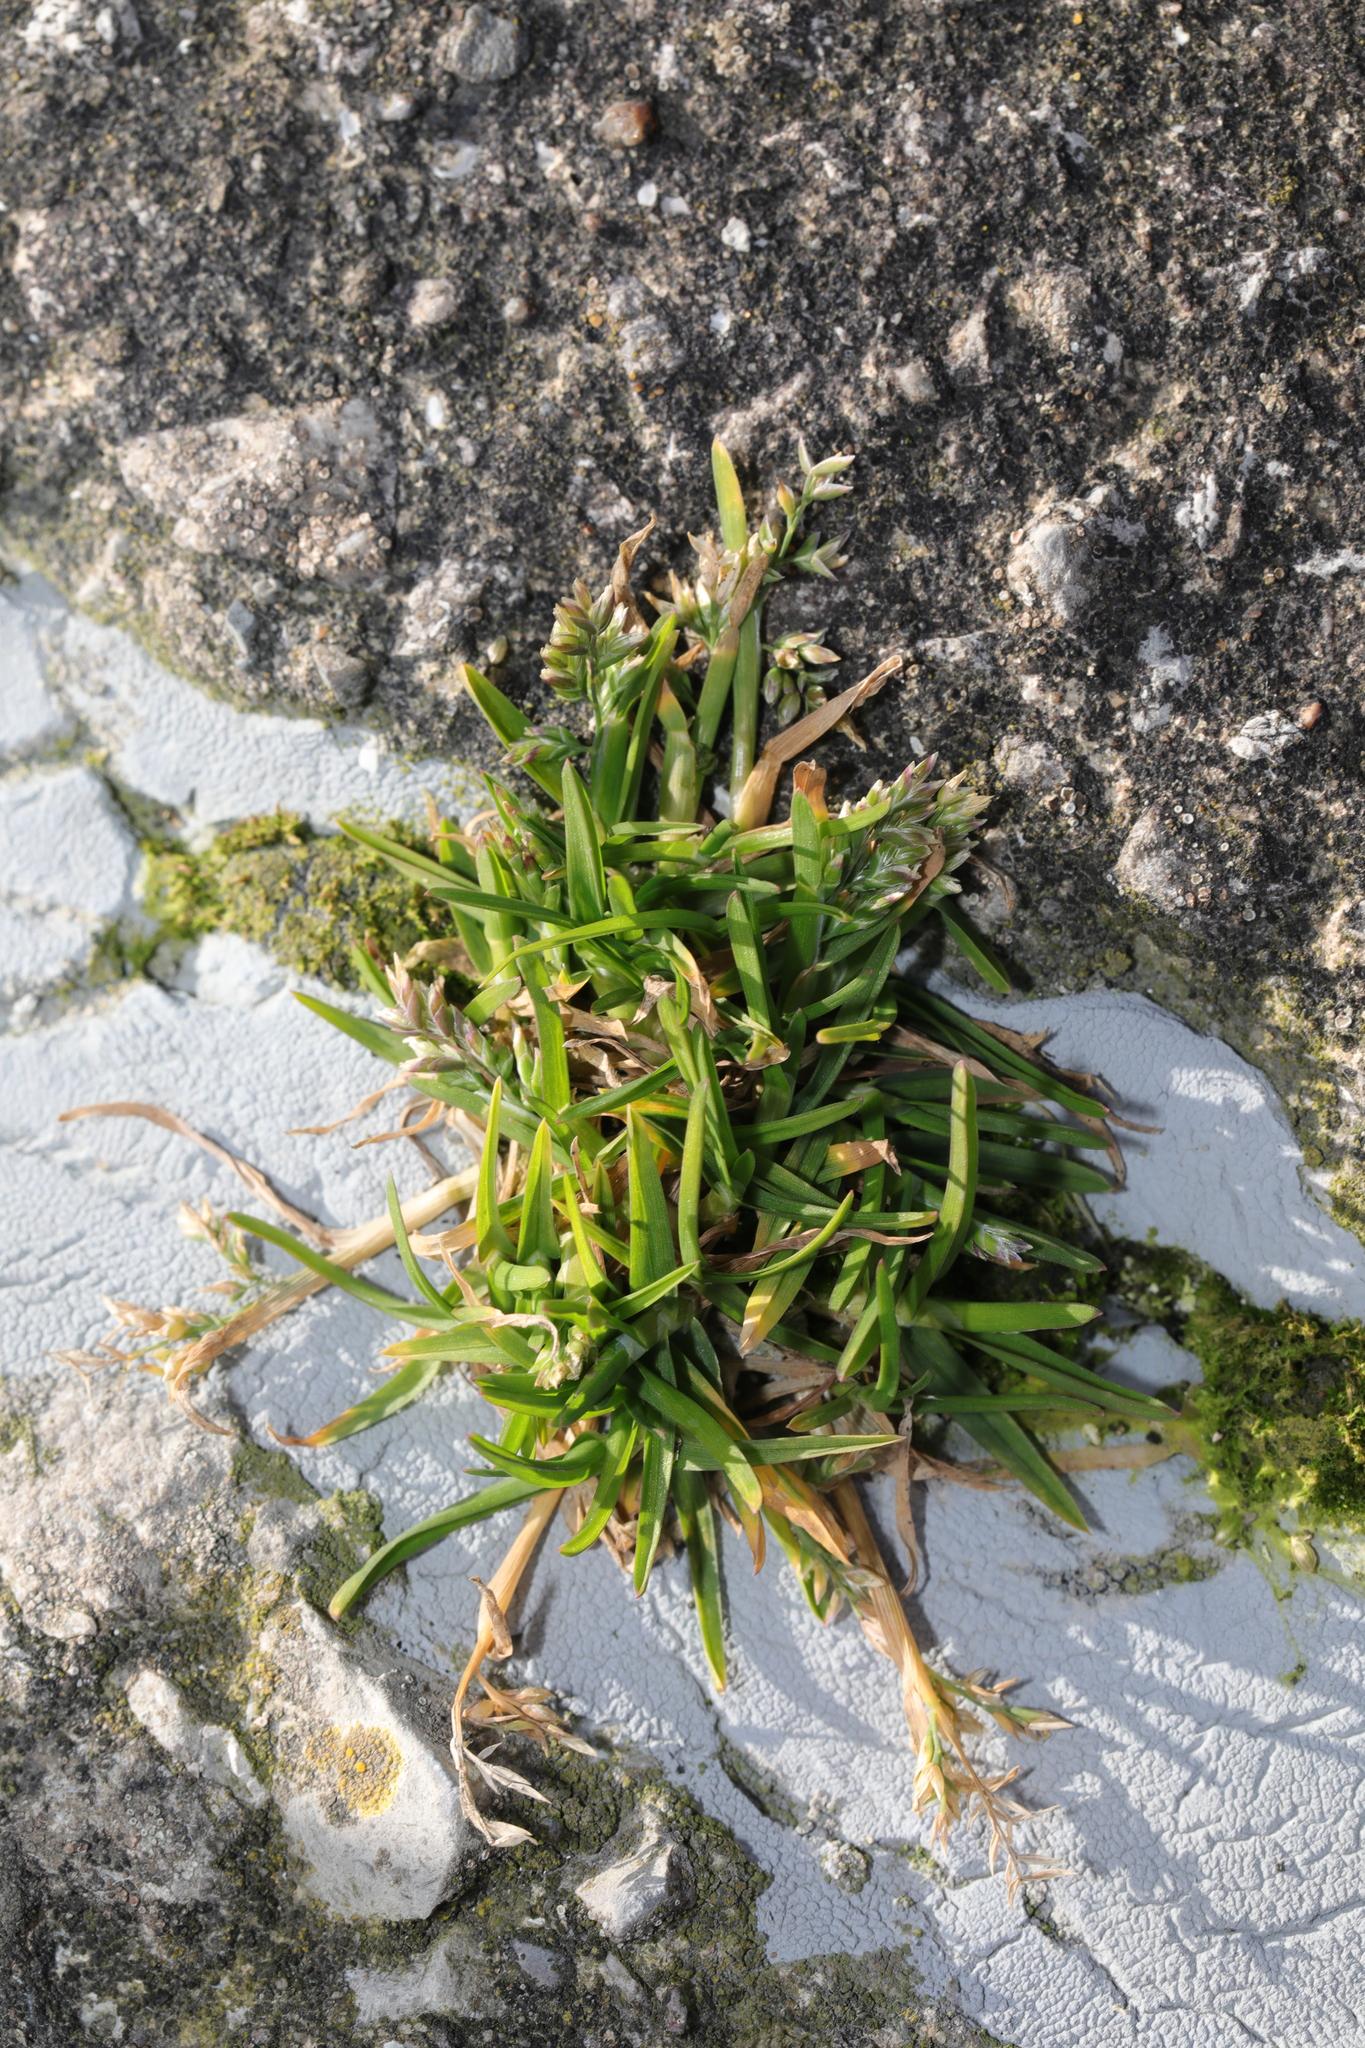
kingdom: Plantae
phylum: Tracheophyta
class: Liliopsida
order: Poales
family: Poaceae
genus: Poa
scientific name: Poa annua
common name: Annual bluegrass
